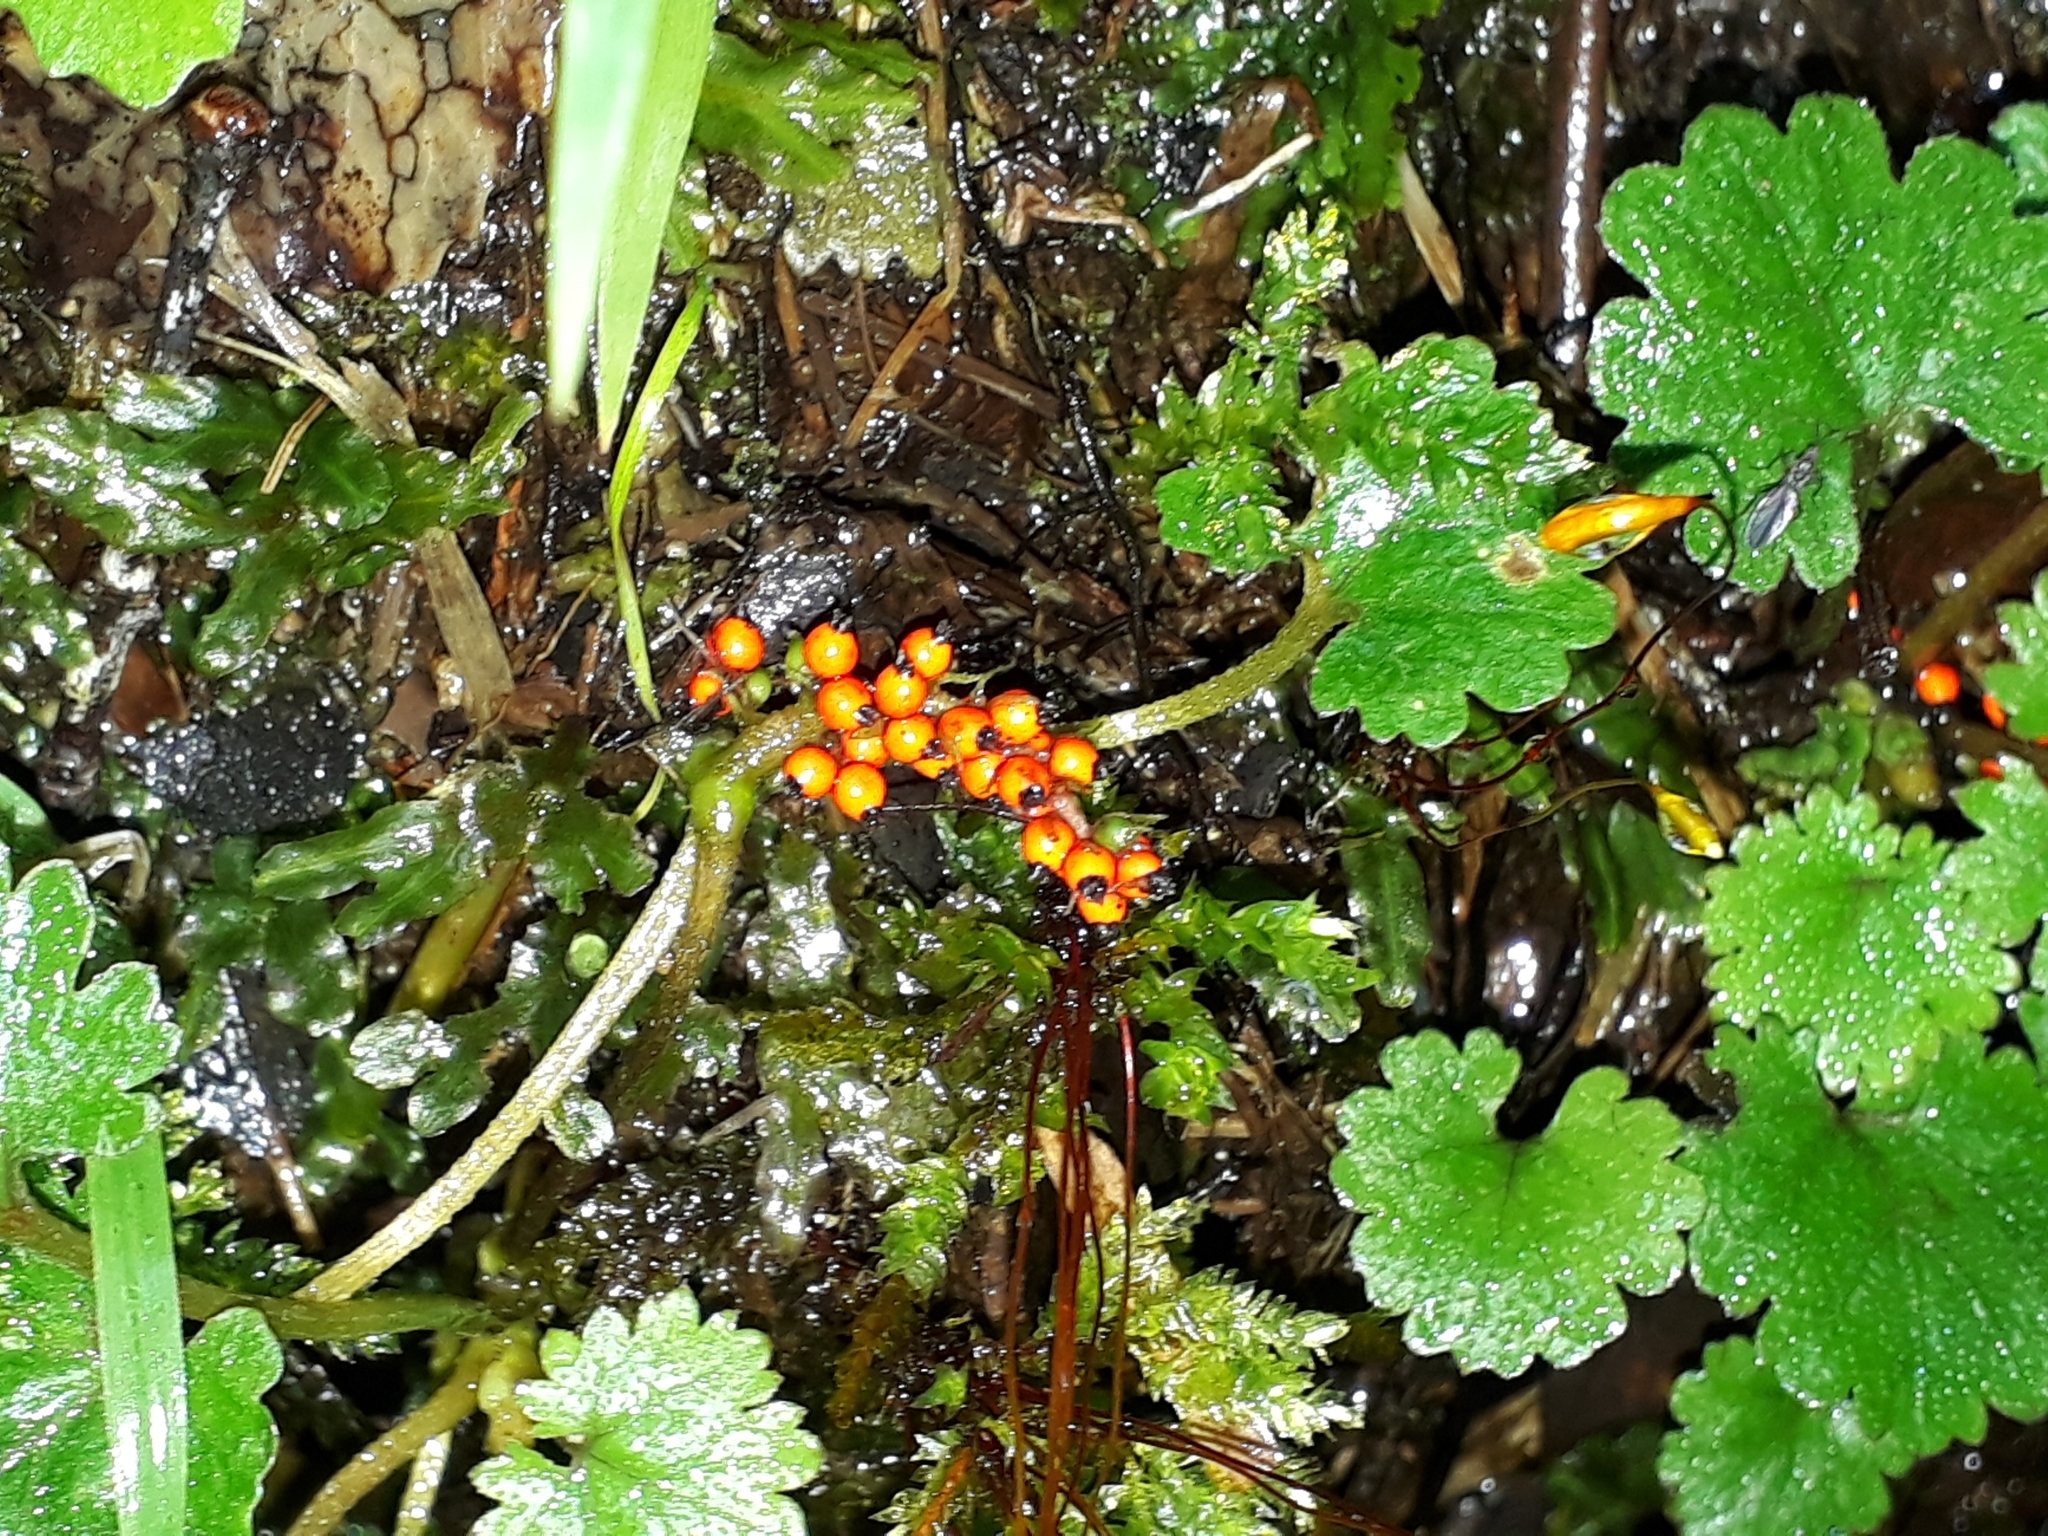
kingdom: Plantae
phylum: Tracheophyta
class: Magnoliopsida
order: Gunnerales
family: Gunneraceae
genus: Gunnera
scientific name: Gunnera monoica
